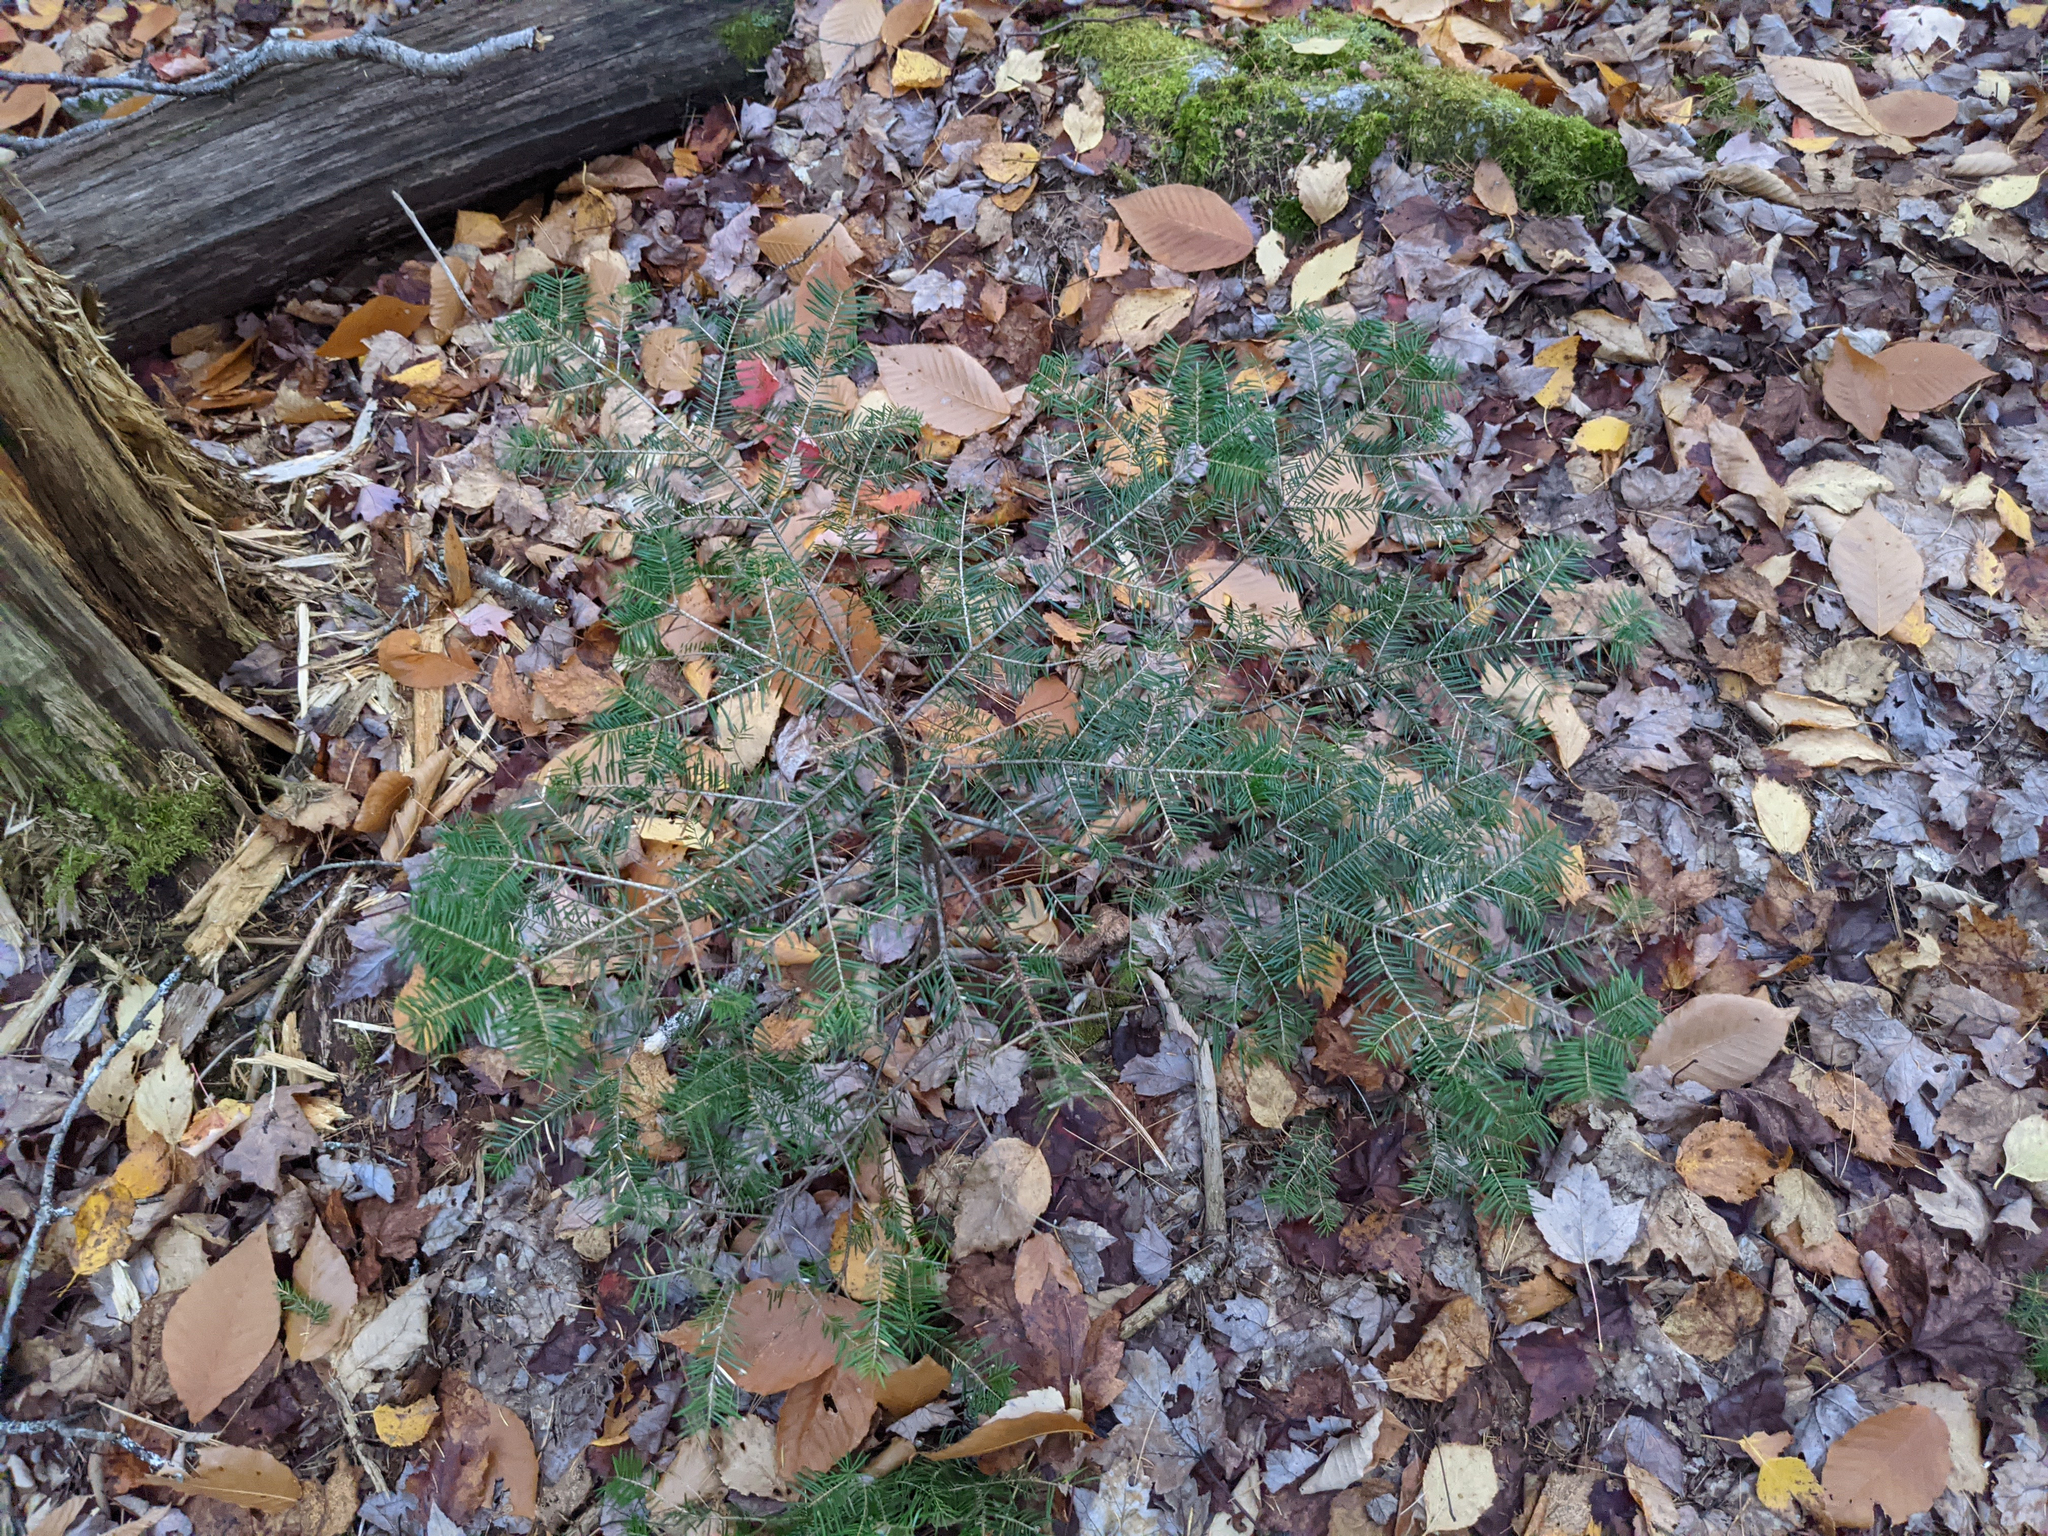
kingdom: Plantae
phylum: Tracheophyta
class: Pinopsida
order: Pinales
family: Pinaceae
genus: Abies
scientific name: Abies balsamea
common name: Balsam fir
